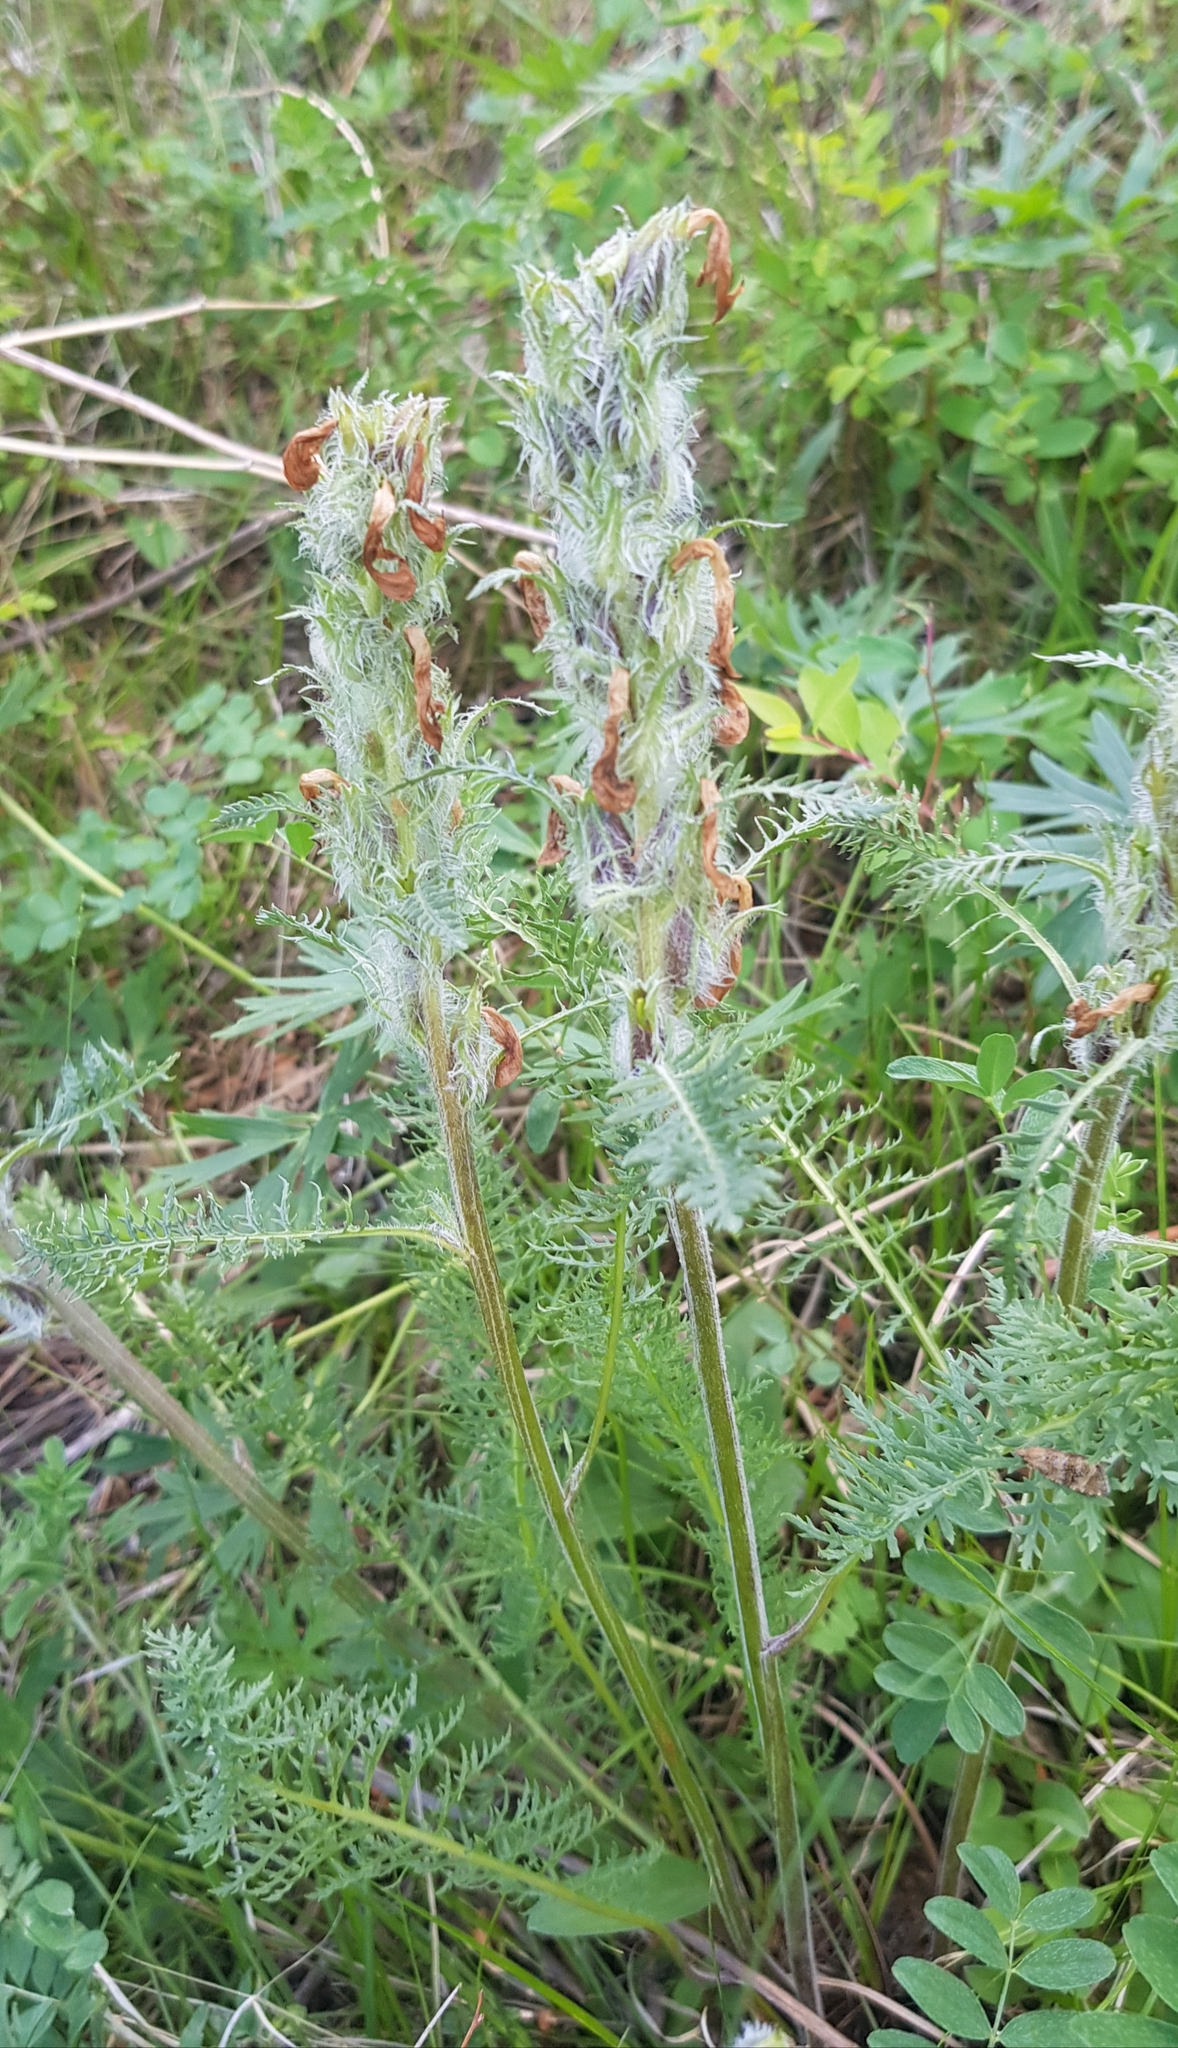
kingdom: Plantae
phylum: Tracheophyta
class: Magnoliopsida
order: Lamiales
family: Orobanchaceae
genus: Pedicularis
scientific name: Pedicularis rubens
